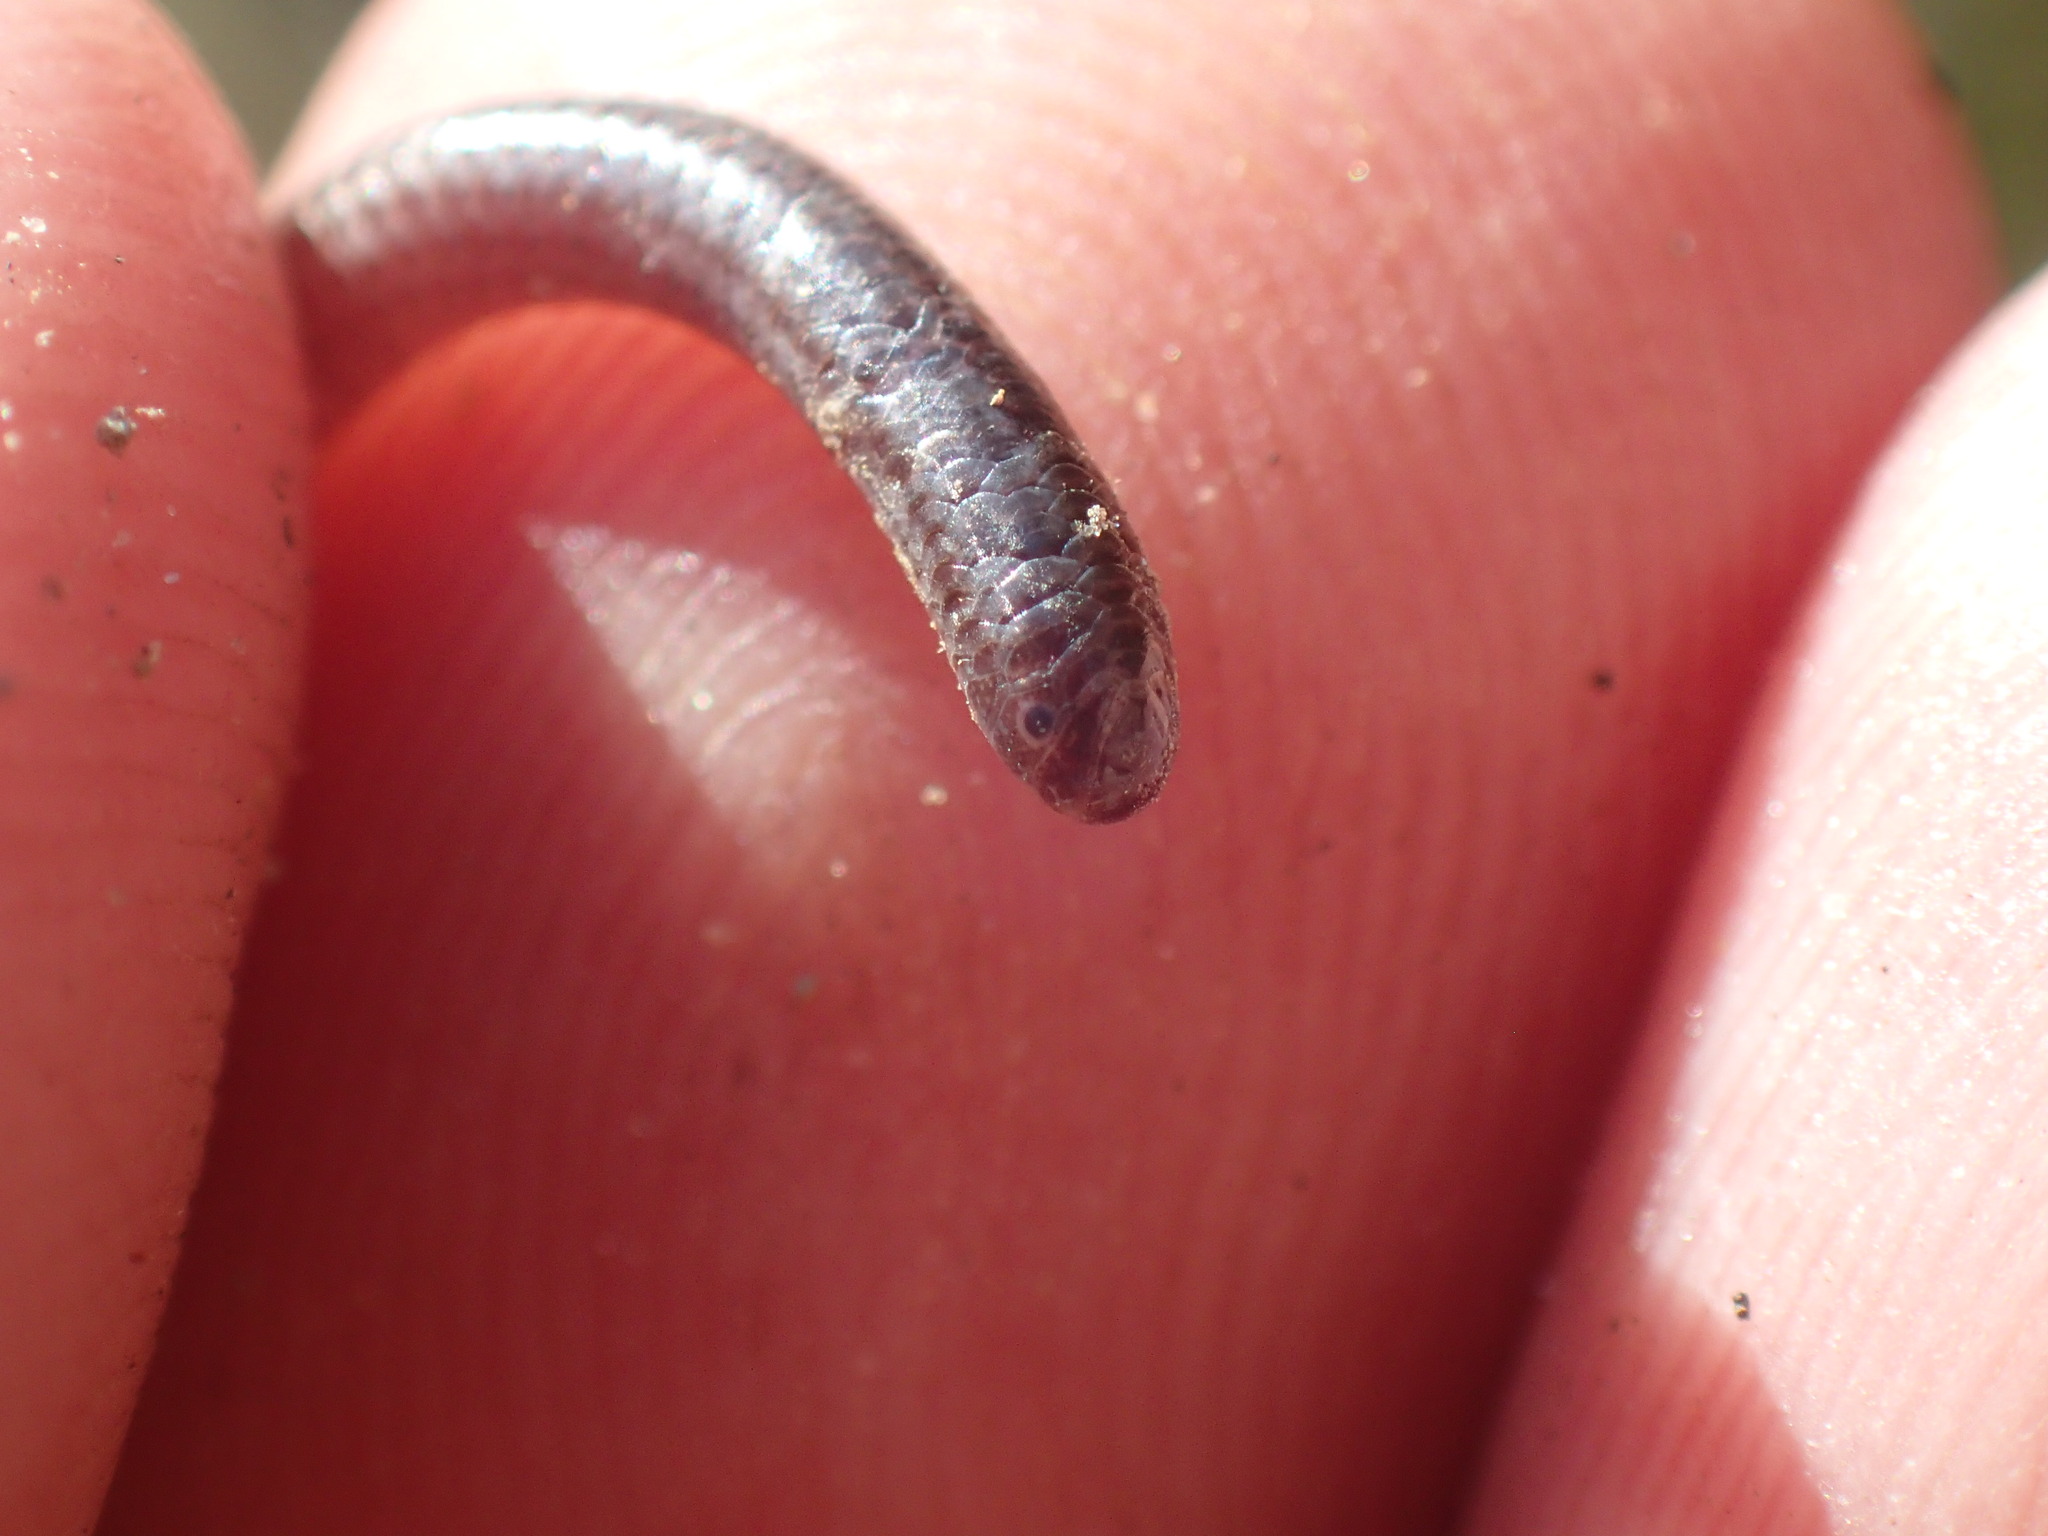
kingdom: Animalia
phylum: Chordata
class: Squamata
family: Leptotyphlopidae
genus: Leptotyphlops
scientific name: Leptotyphlops kafubi
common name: Shaba thread snake
